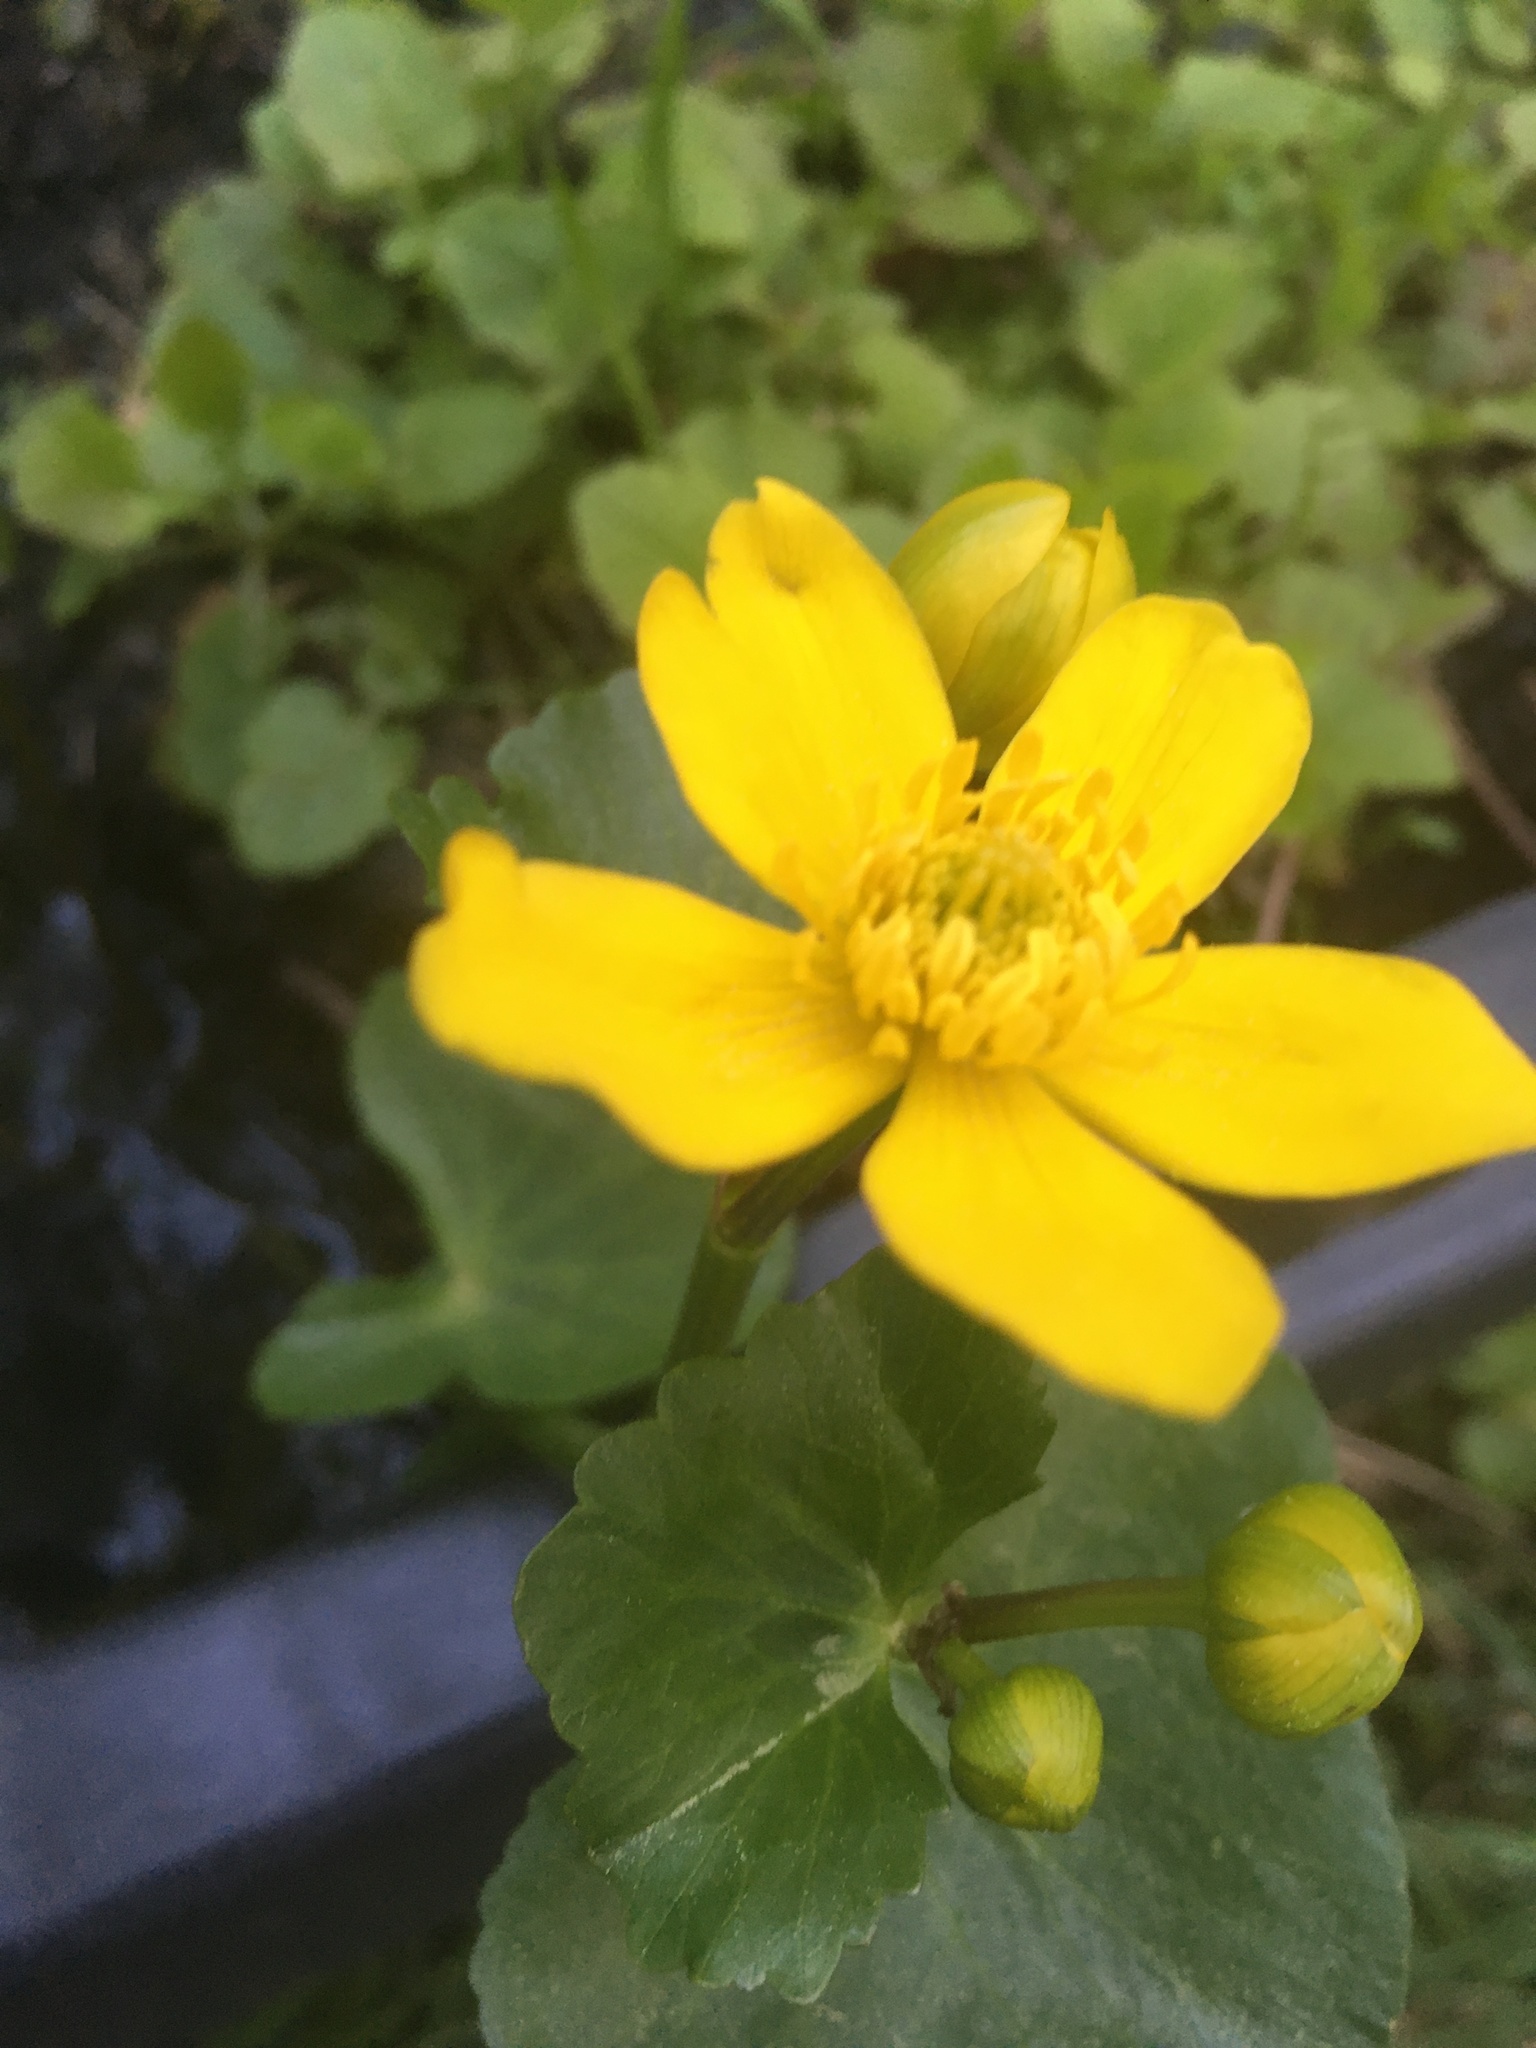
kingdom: Plantae
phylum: Tracheophyta
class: Magnoliopsida
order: Ranunculales
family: Ranunculaceae
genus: Caltha
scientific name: Caltha palustris
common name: Marsh marigold
